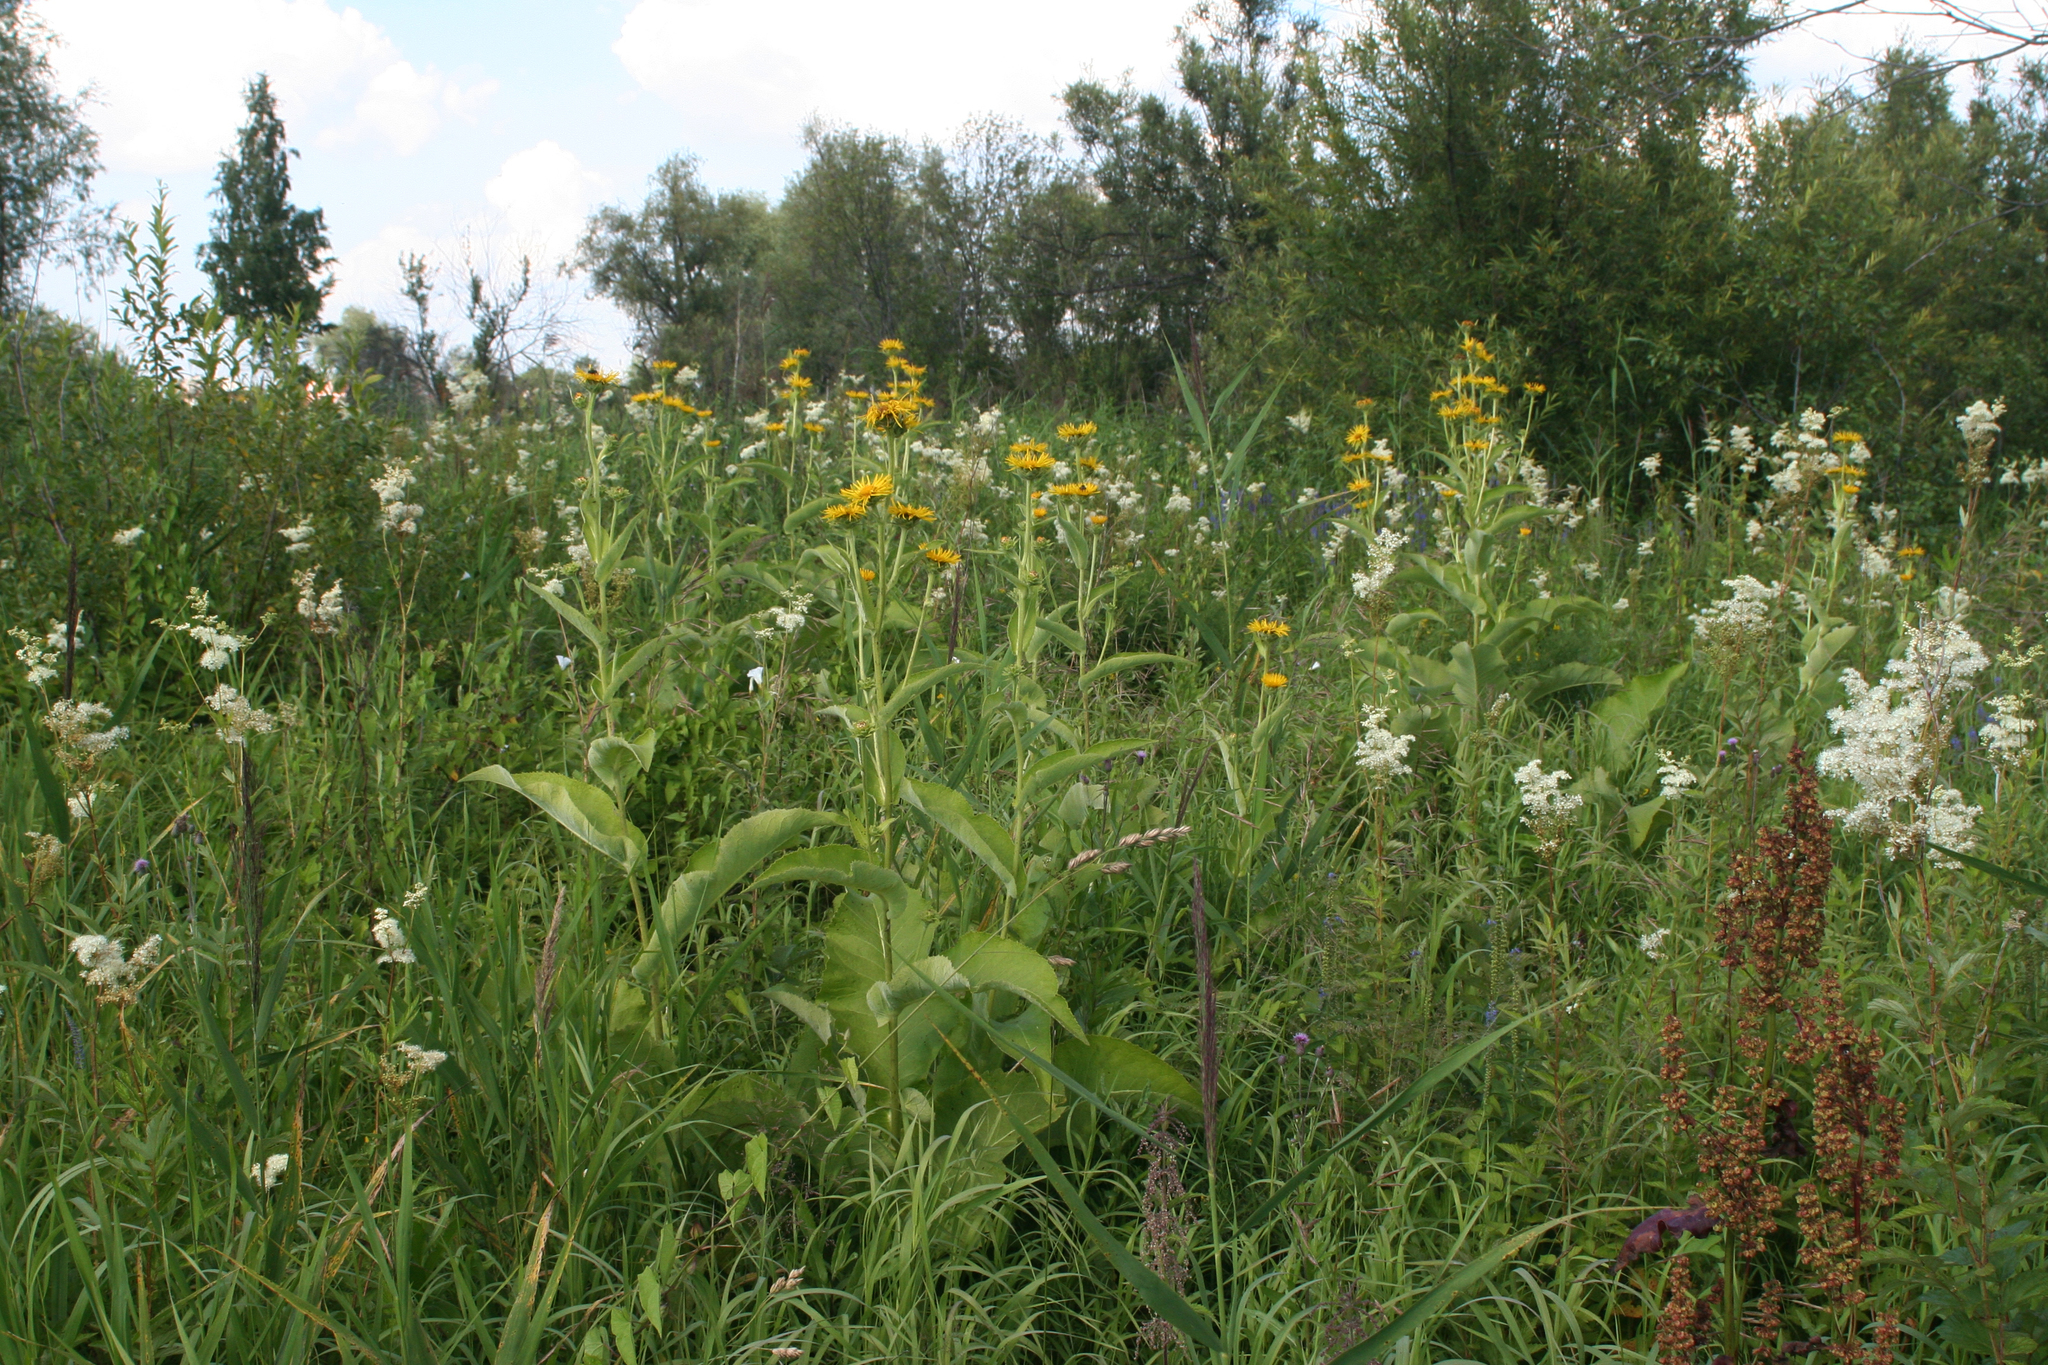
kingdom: Plantae
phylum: Tracheophyta
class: Magnoliopsida
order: Rosales
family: Rosaceae
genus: Filipendula
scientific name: Filipendula ulmaria
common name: Meadowsweet
